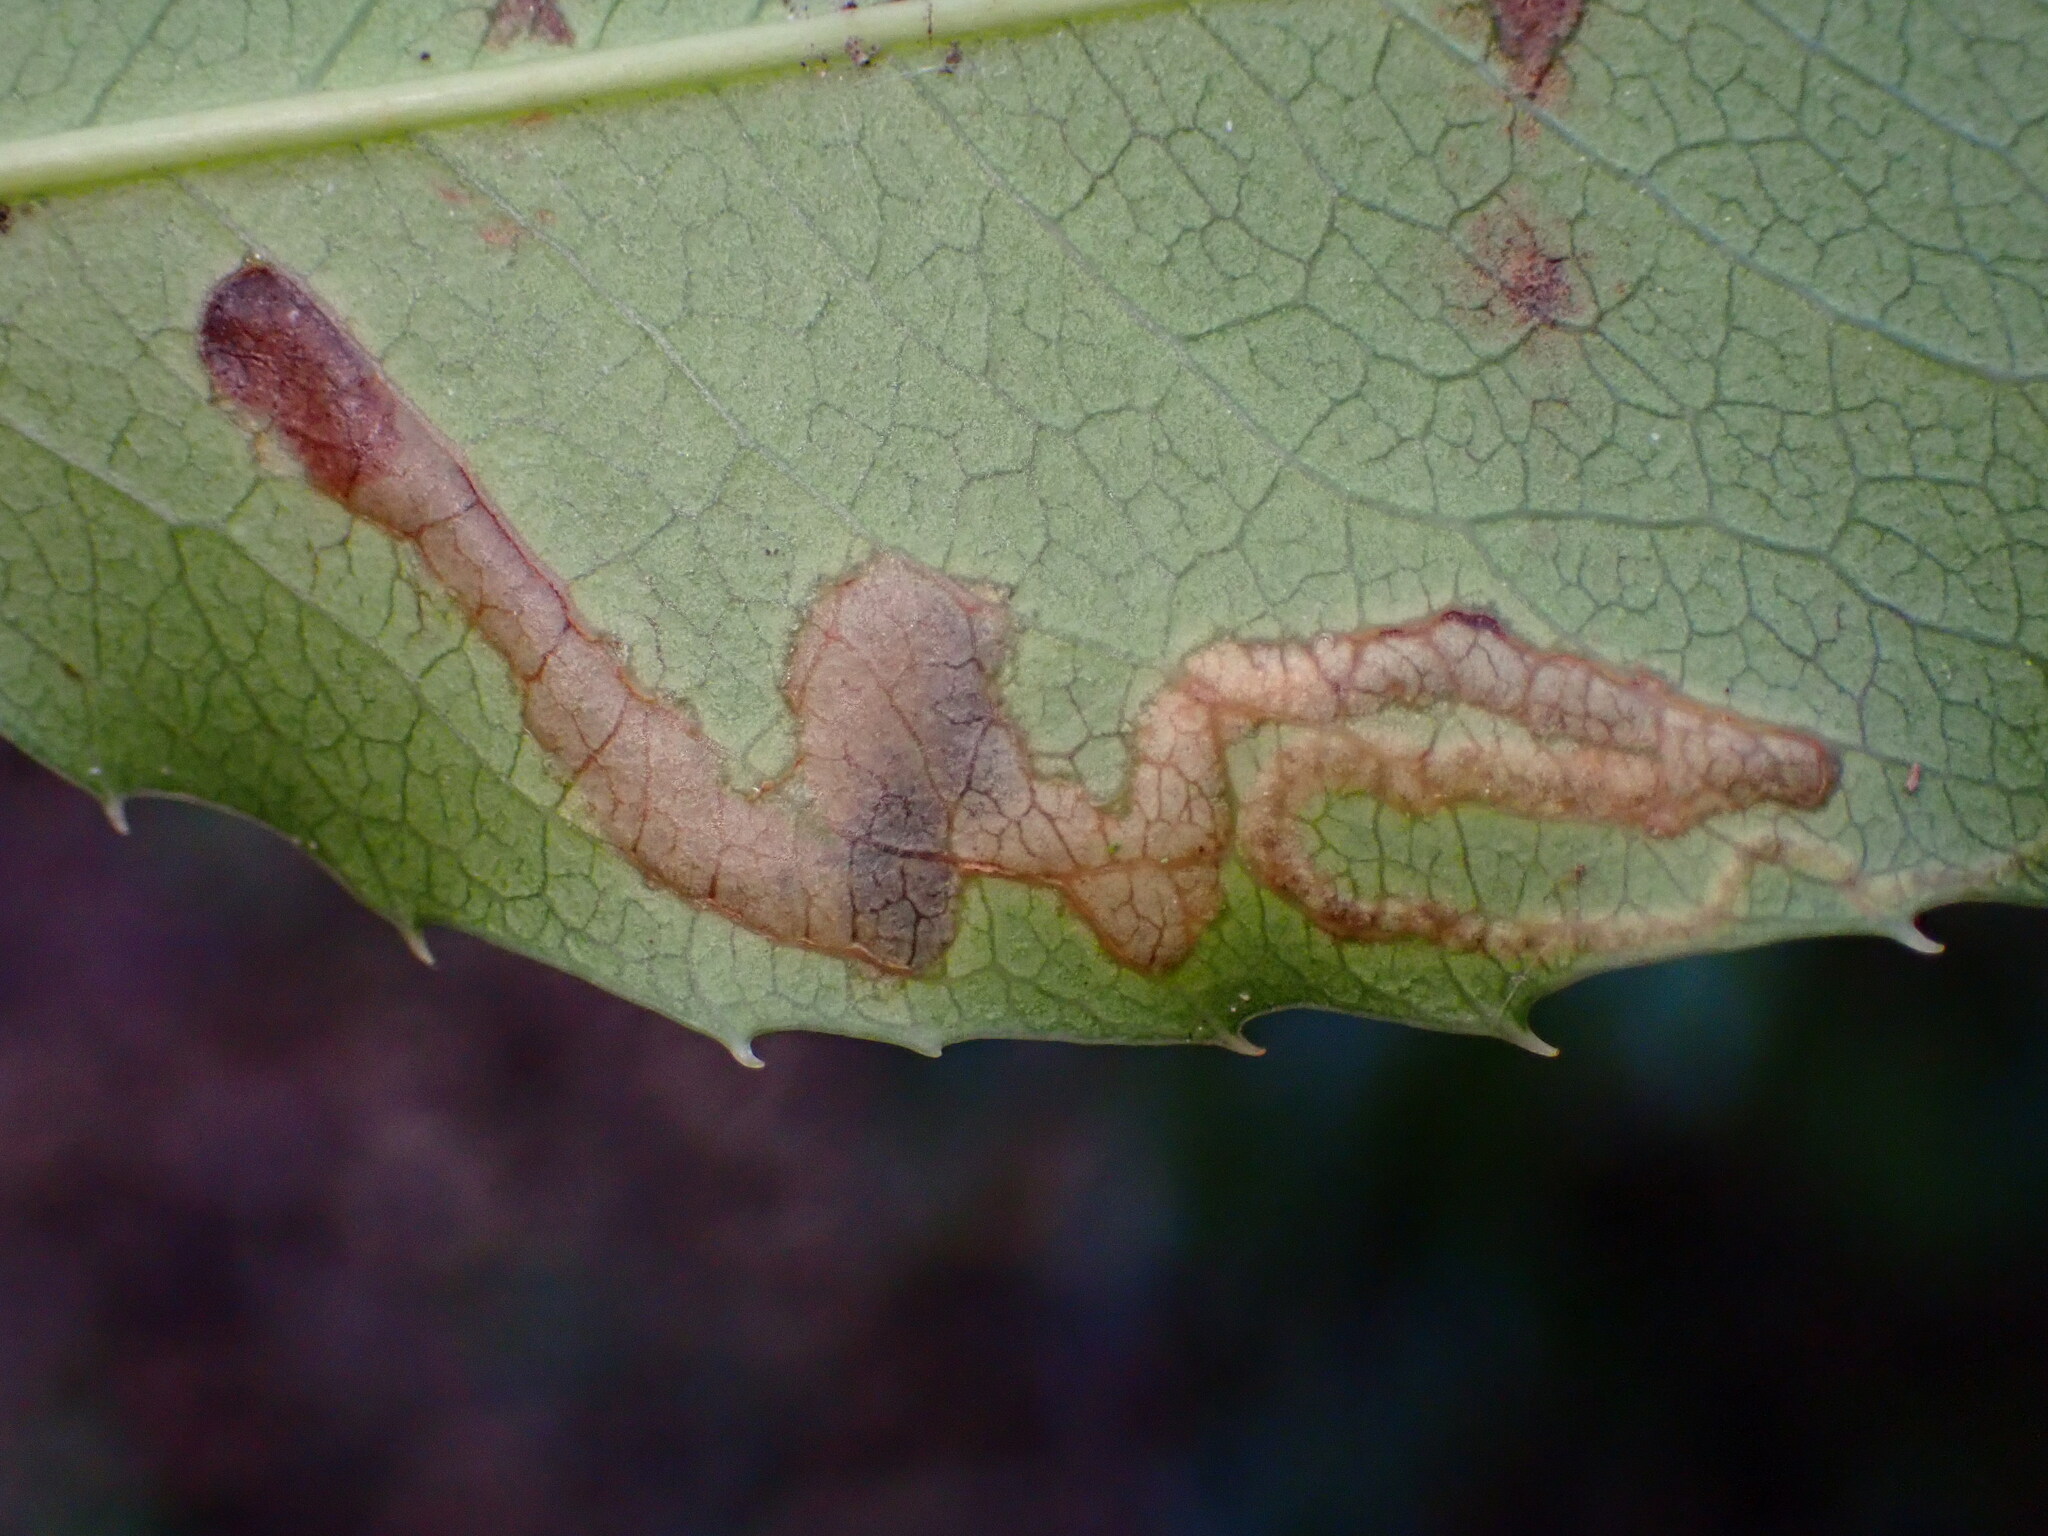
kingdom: Animalia
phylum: Arthropoda
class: Insecta
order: Lepidoptera
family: Nepticulidae
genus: Stigmella
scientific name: Stigmella braunella
